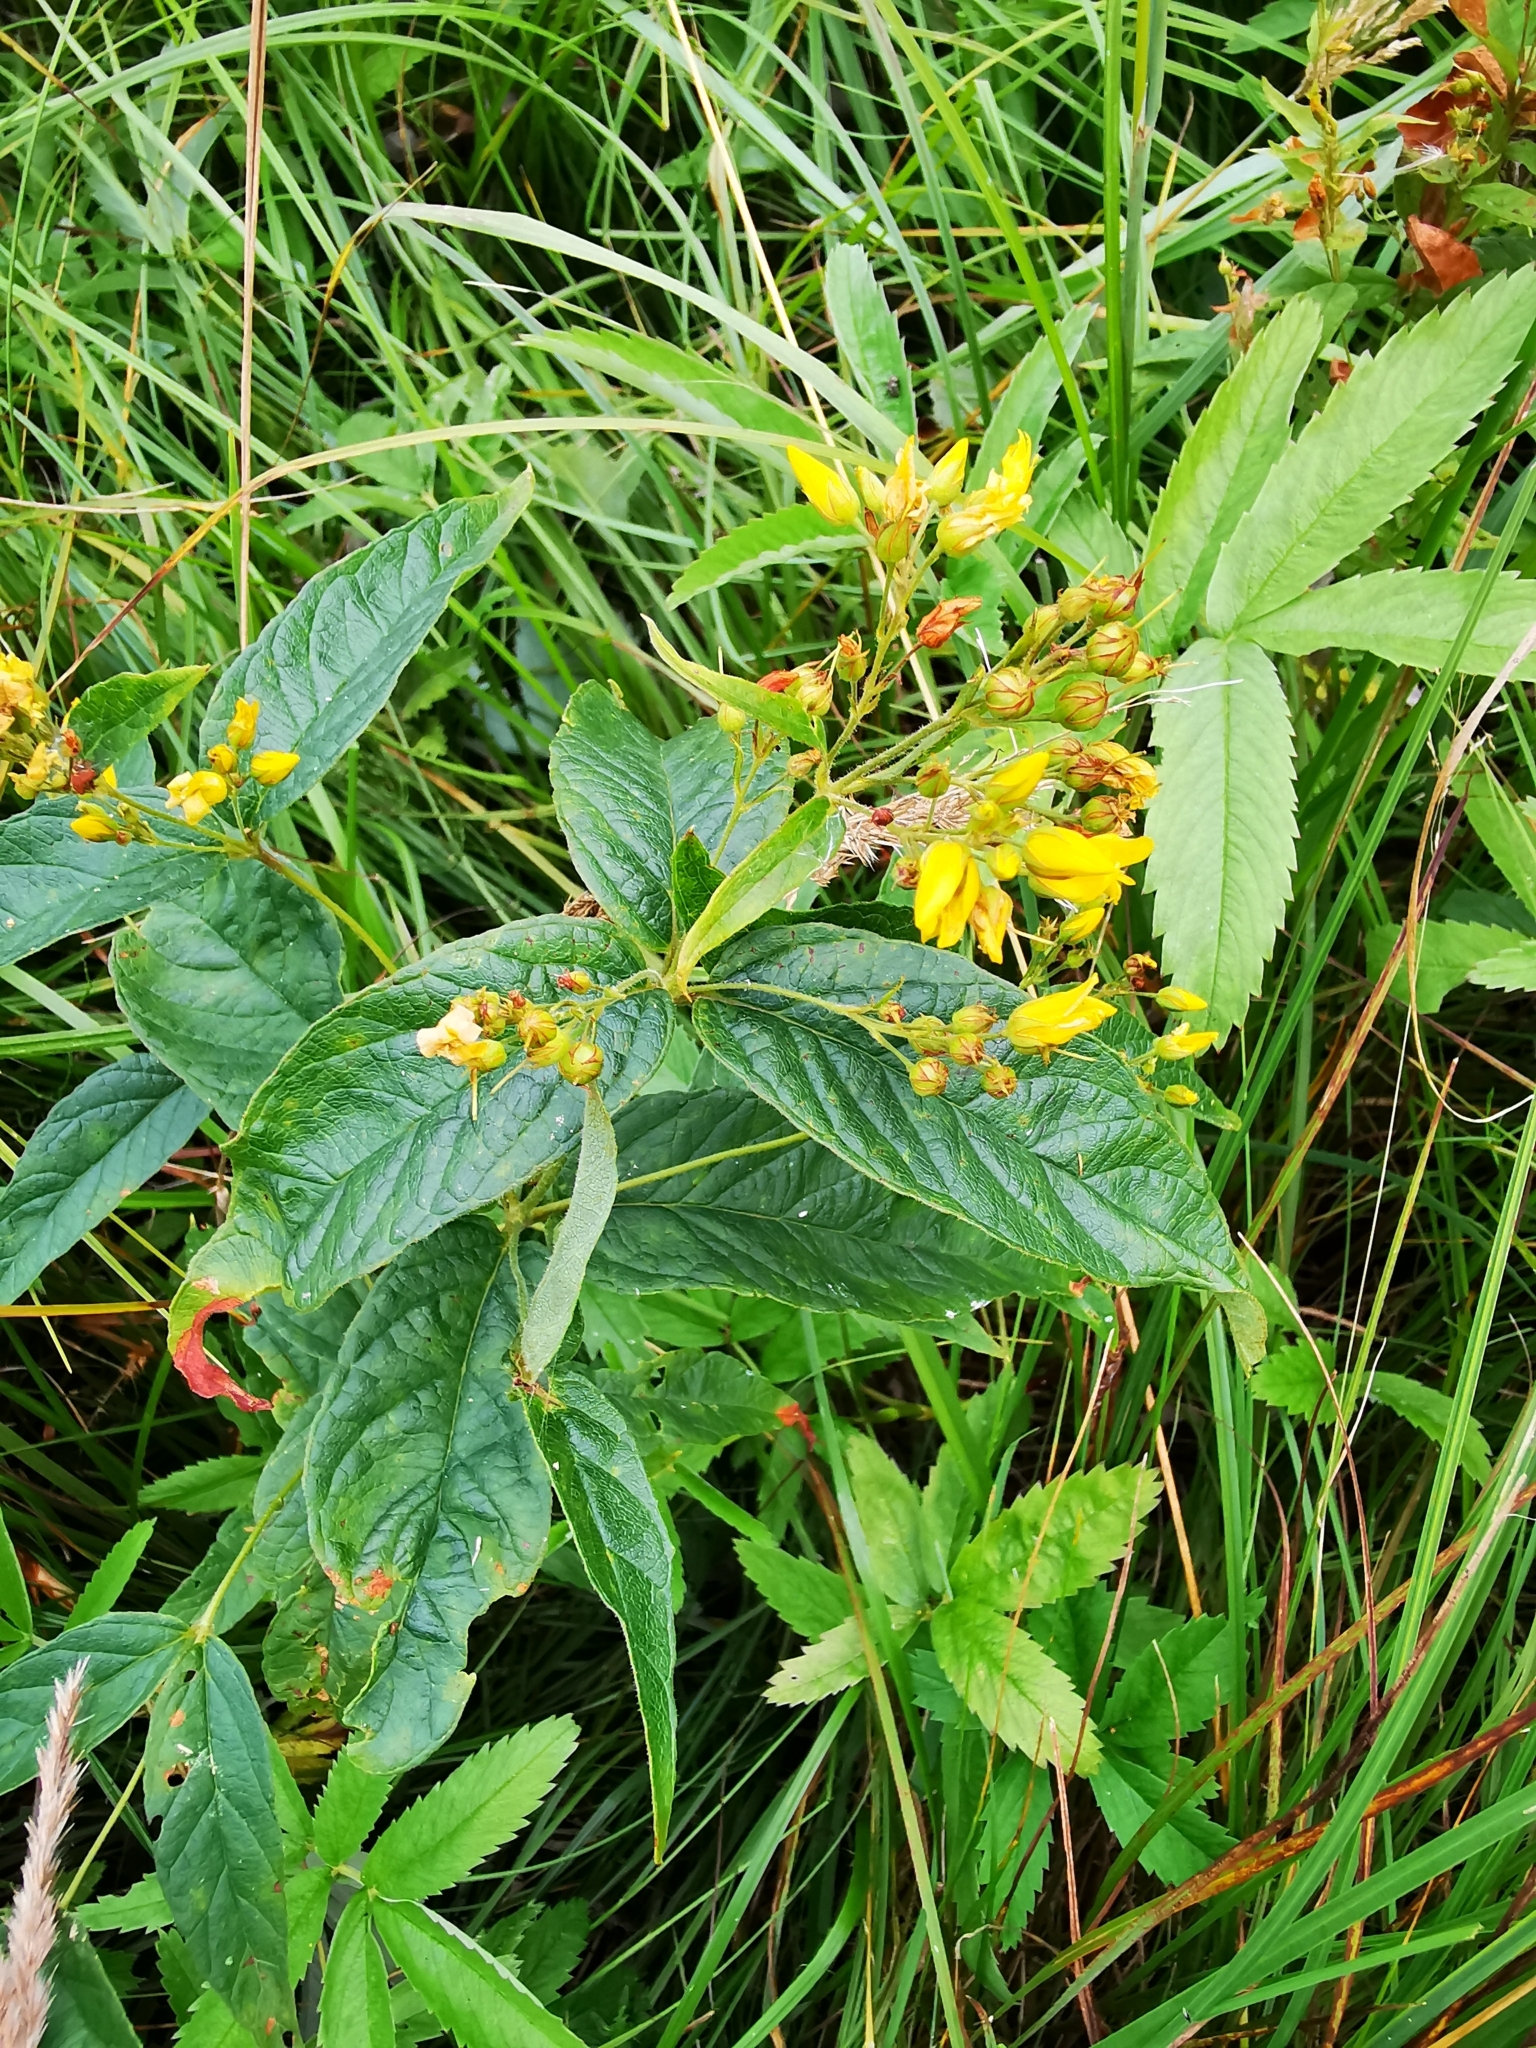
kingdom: Plantae
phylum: Tracheophyta
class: Magnoliopsida
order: Ericales
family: Primulaceae
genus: Lysimachia
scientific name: Lysimachia vulgaris
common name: Yellow loosestrife
